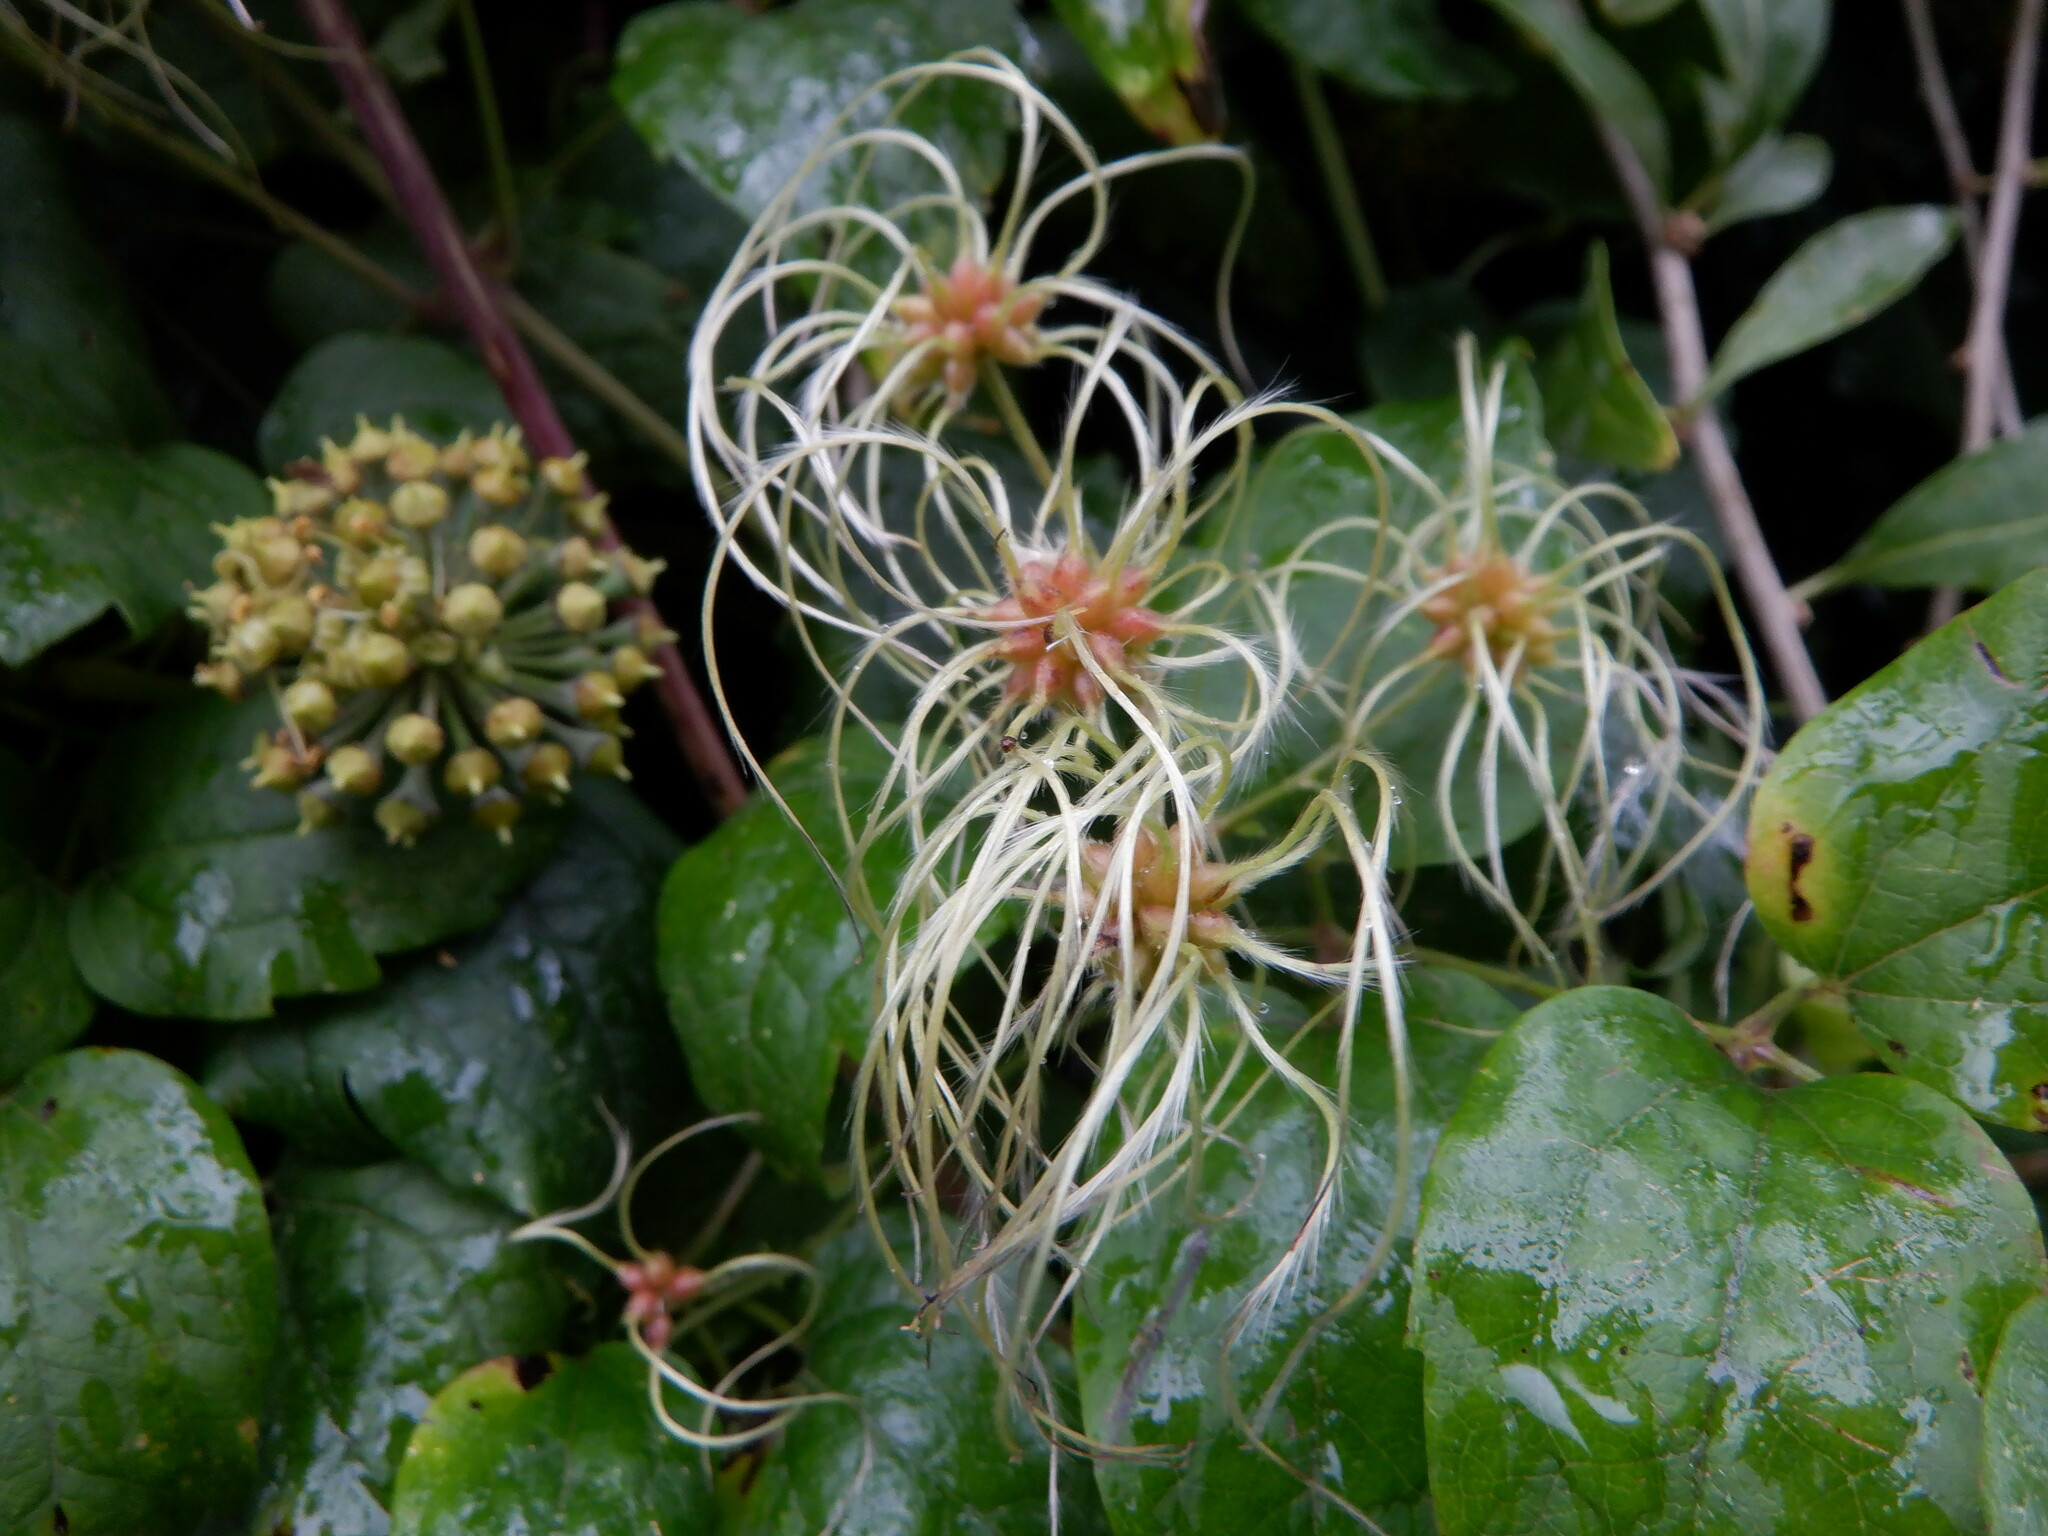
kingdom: Plantae
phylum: Tracheophyta
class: Magnoliopsida
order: Ranunculales
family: Ranunculaceae
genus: Clematis
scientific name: Clematis vitalba
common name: Evergreen clematis
